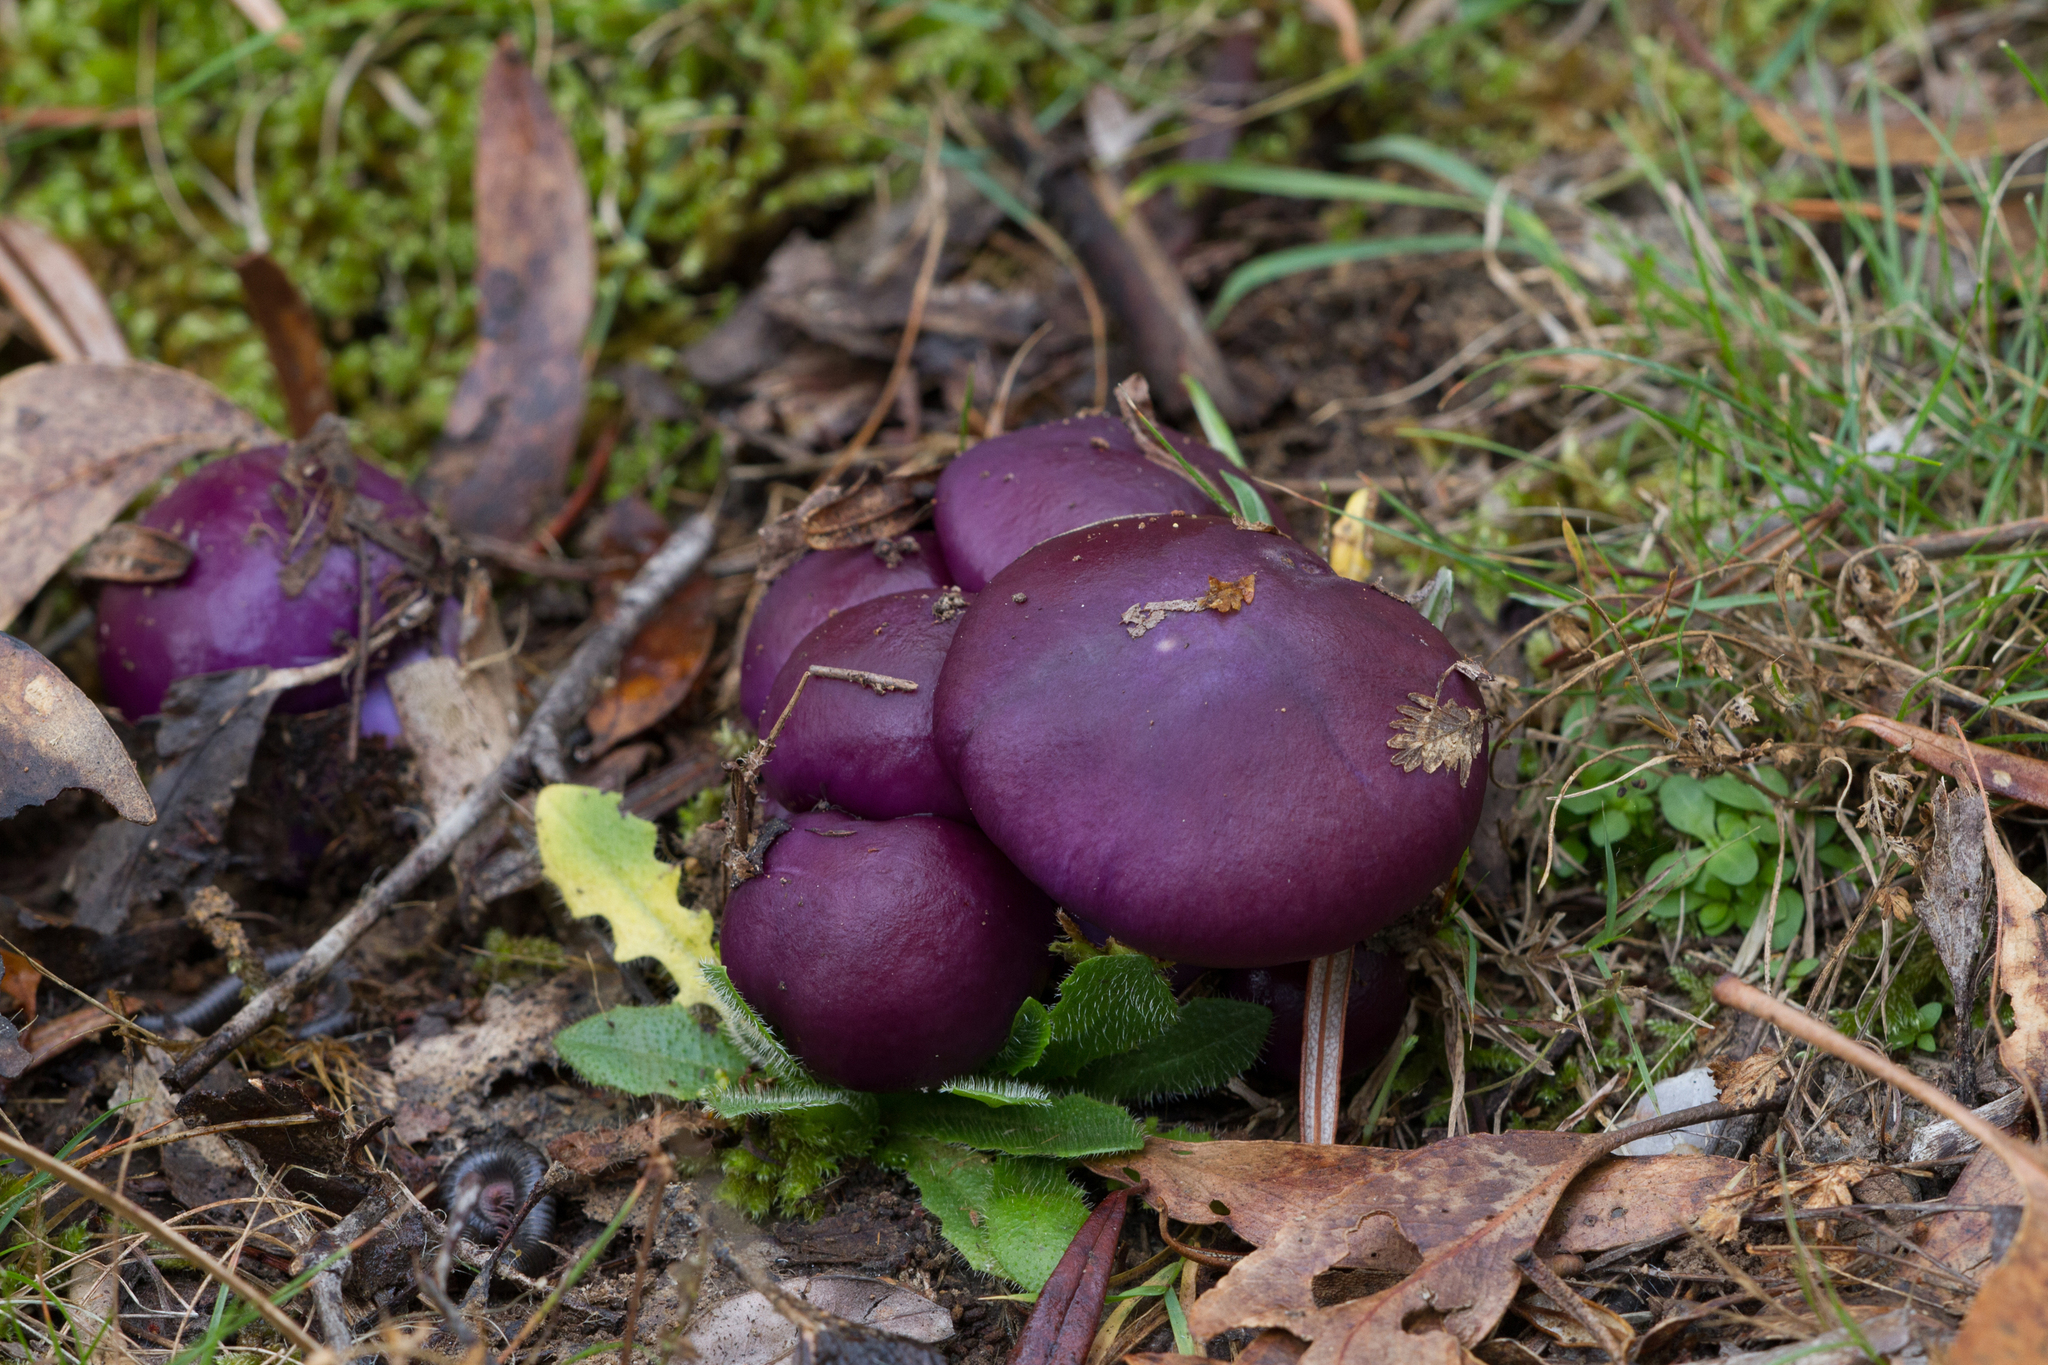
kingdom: Fungi
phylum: Basidiomycota
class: Agaricomycetes
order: Agaricales
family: Cortinariaceae
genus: Cortinarius
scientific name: Cortinarius archeri
